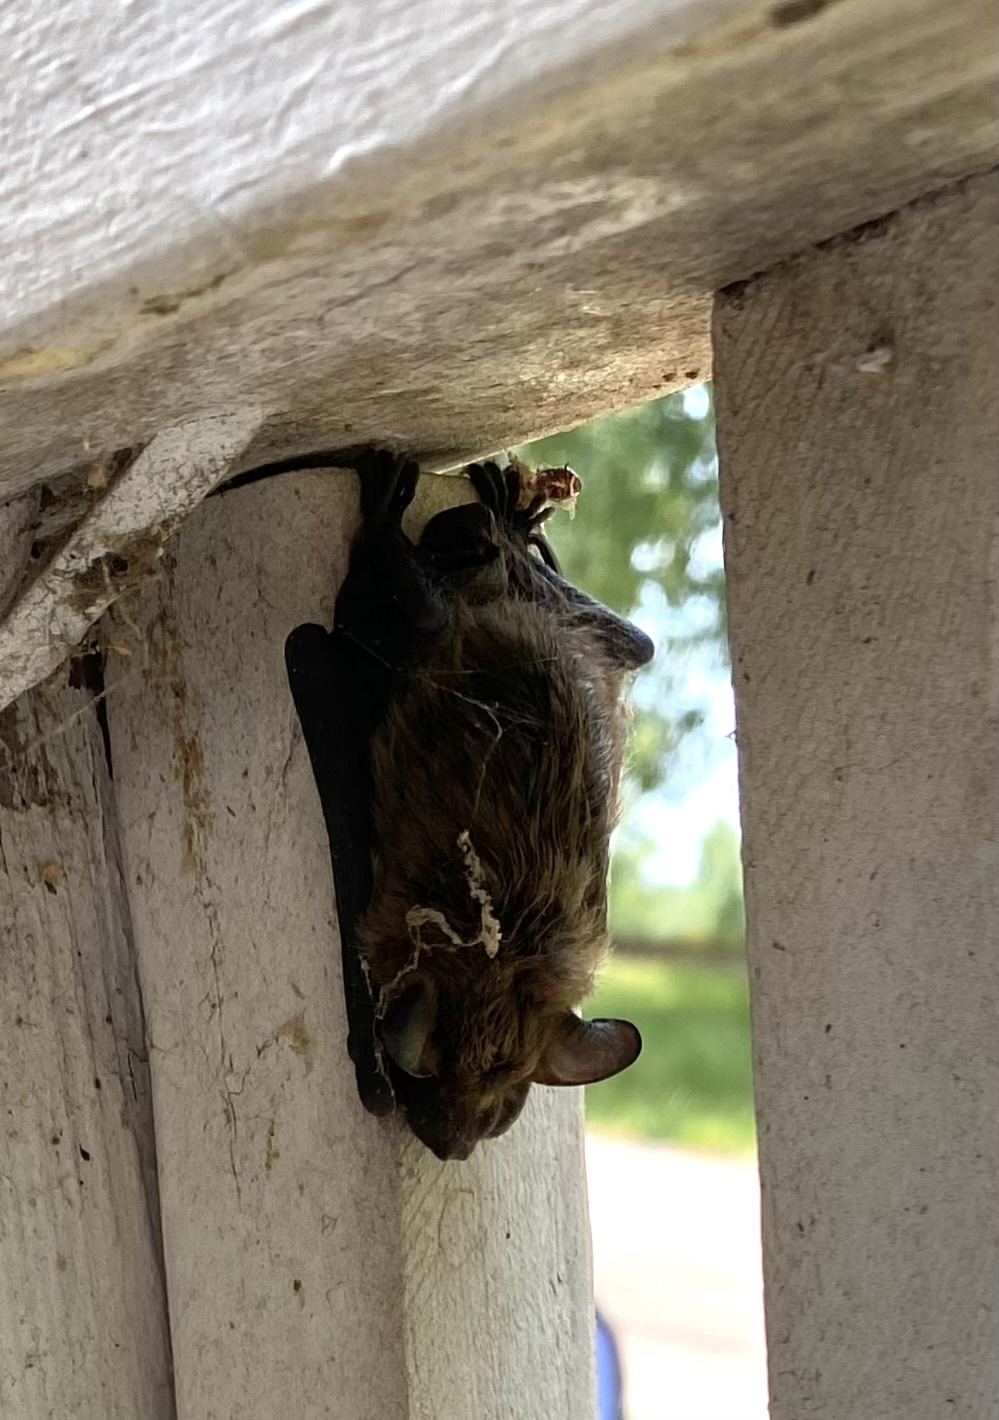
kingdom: Animalia
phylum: Chordata
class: Mammalia
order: Chiroptera
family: Vespertilionidae
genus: Eptesicus
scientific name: Eptesicus fuscus
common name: Big brown bat
